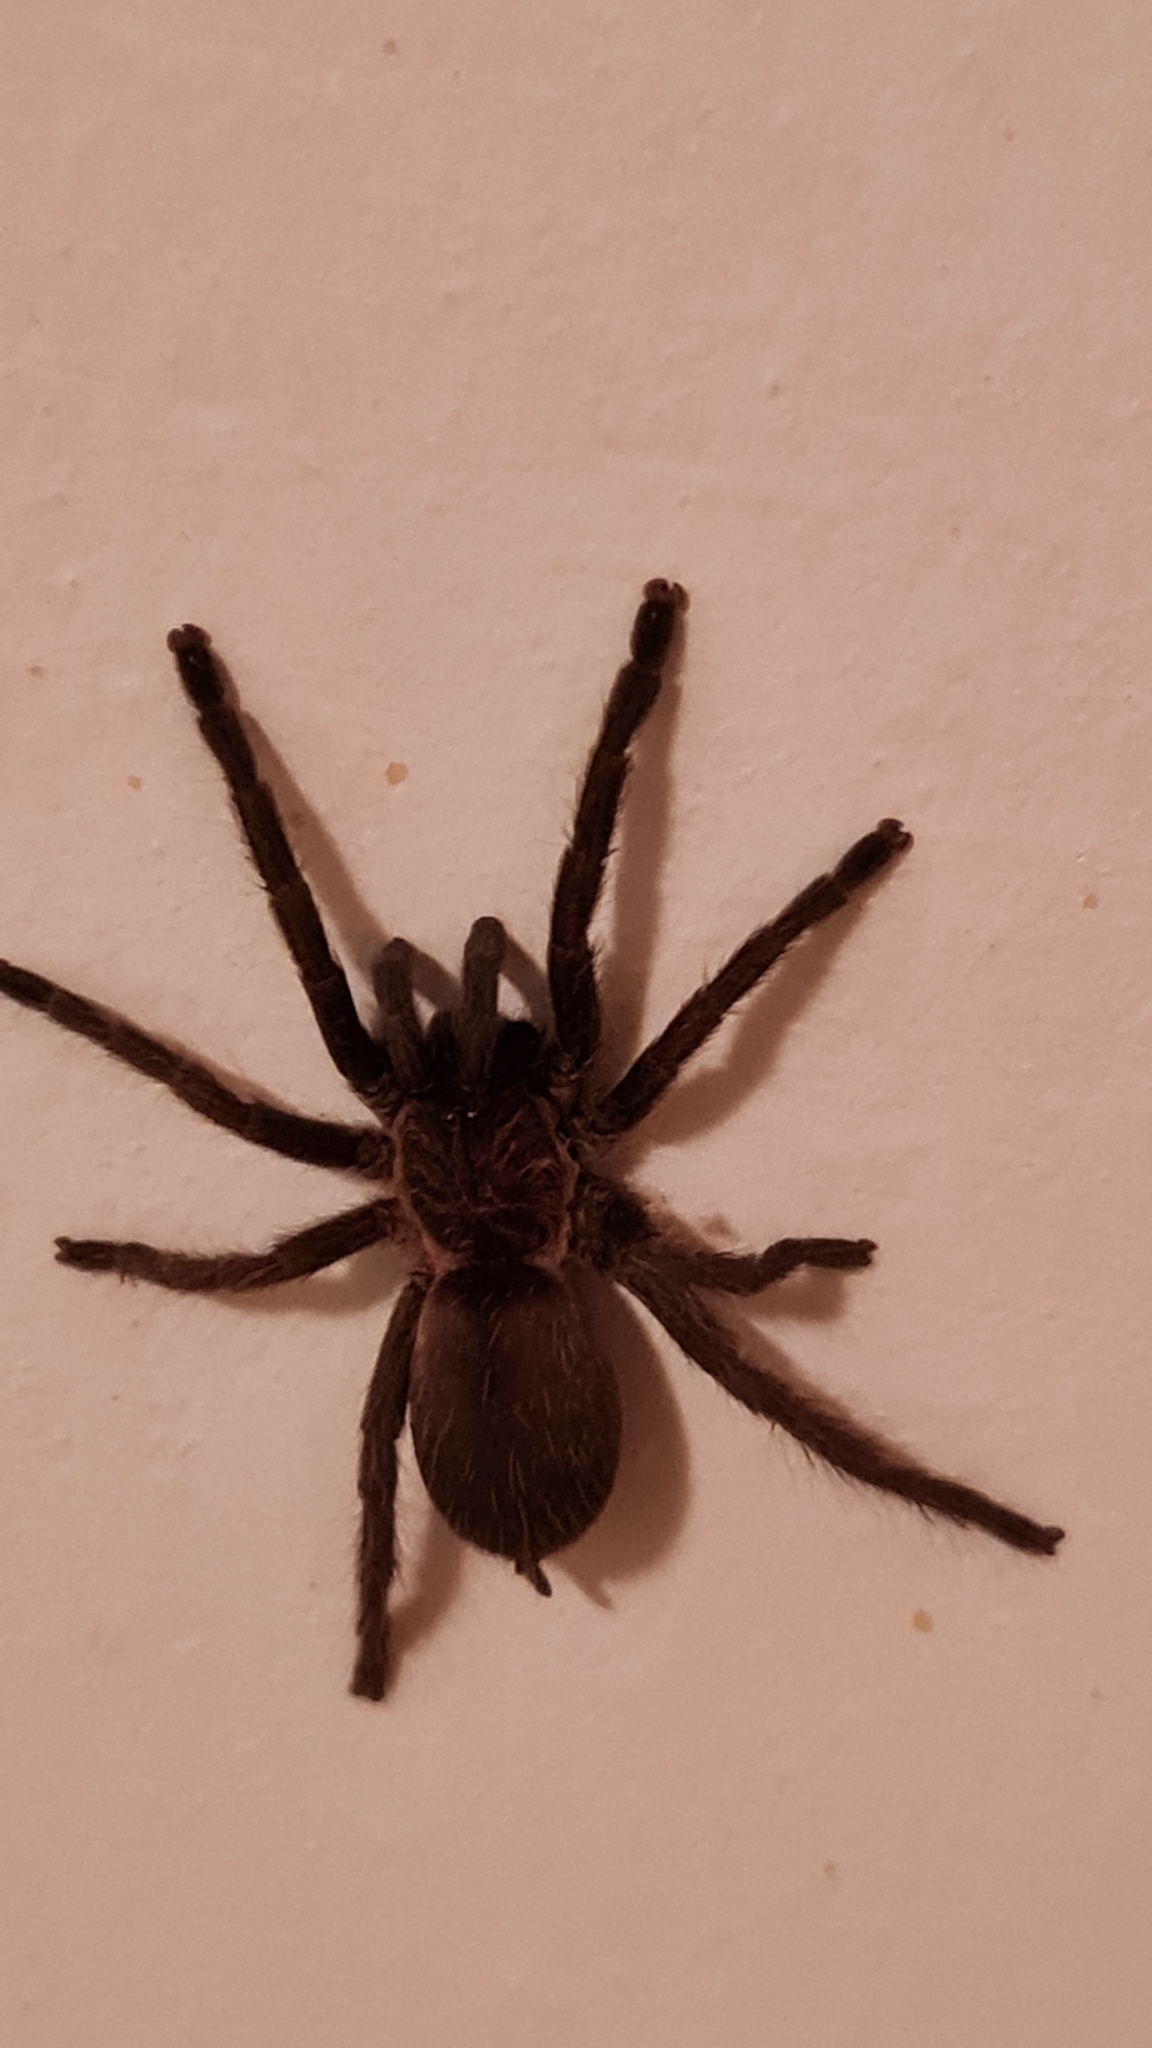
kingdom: Animalia
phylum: Arthropoda
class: Arachnida
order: Araneae
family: Theraphosidae
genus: Dolichothele
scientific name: Dolichothele exilis
